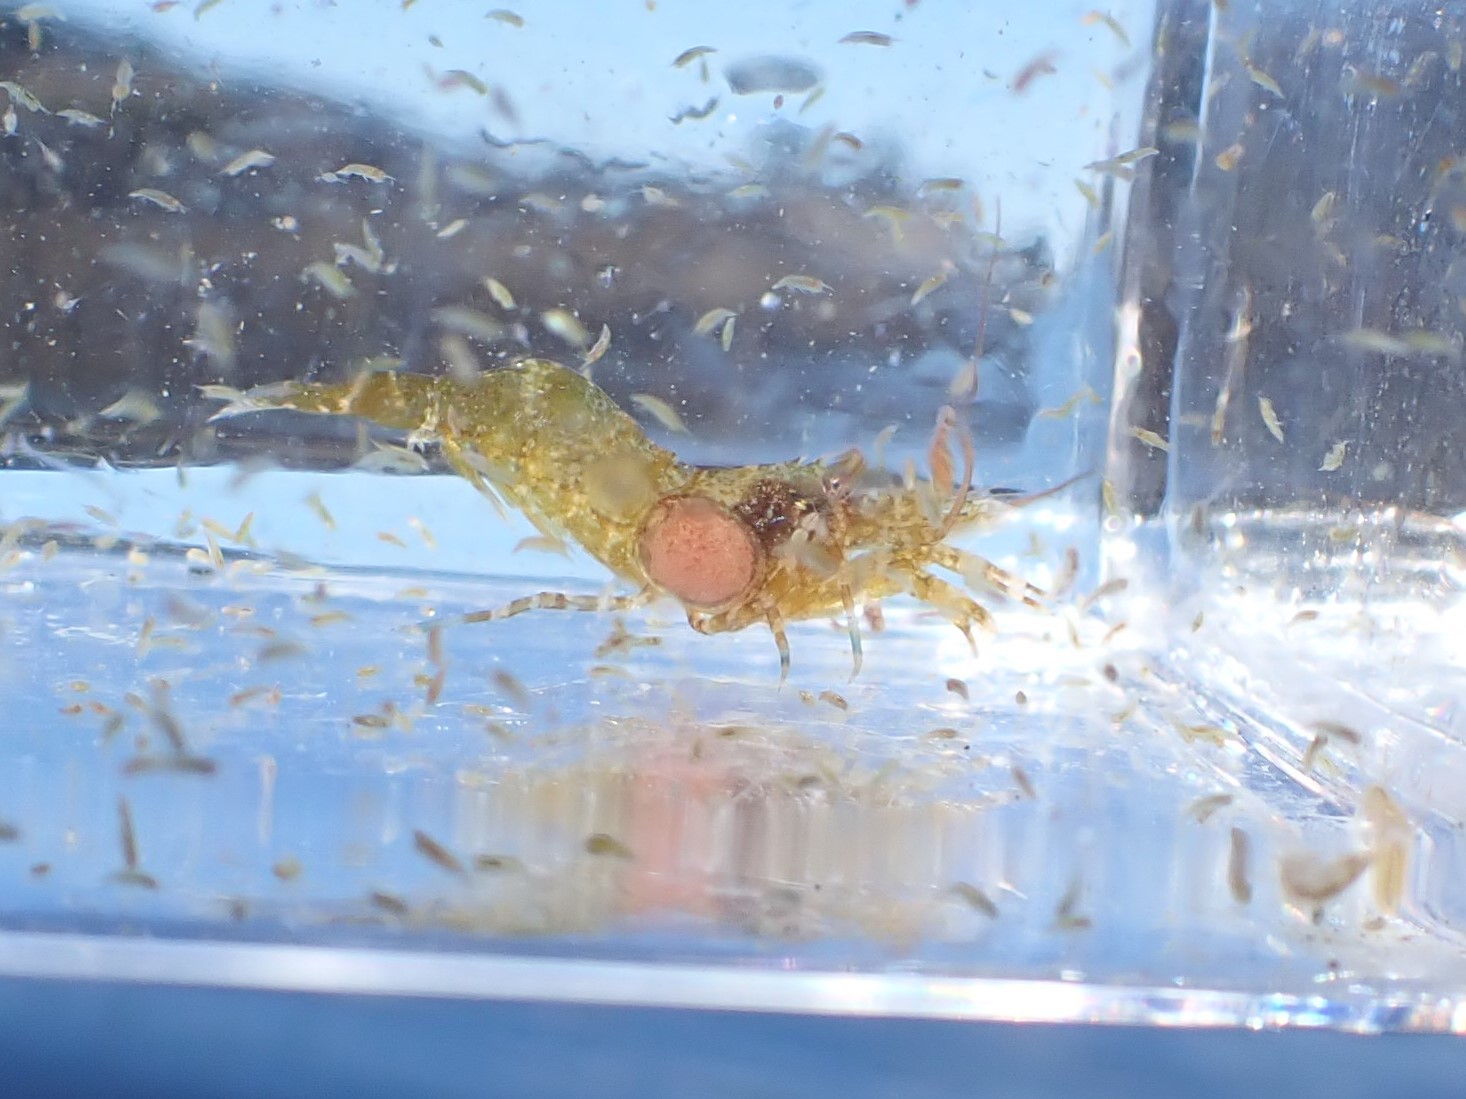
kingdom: Animalia
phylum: Arthropoda
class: Malacostraca
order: Isopoda
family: Bopyridae
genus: Bopyroides
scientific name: Bopyroides hippolytes
